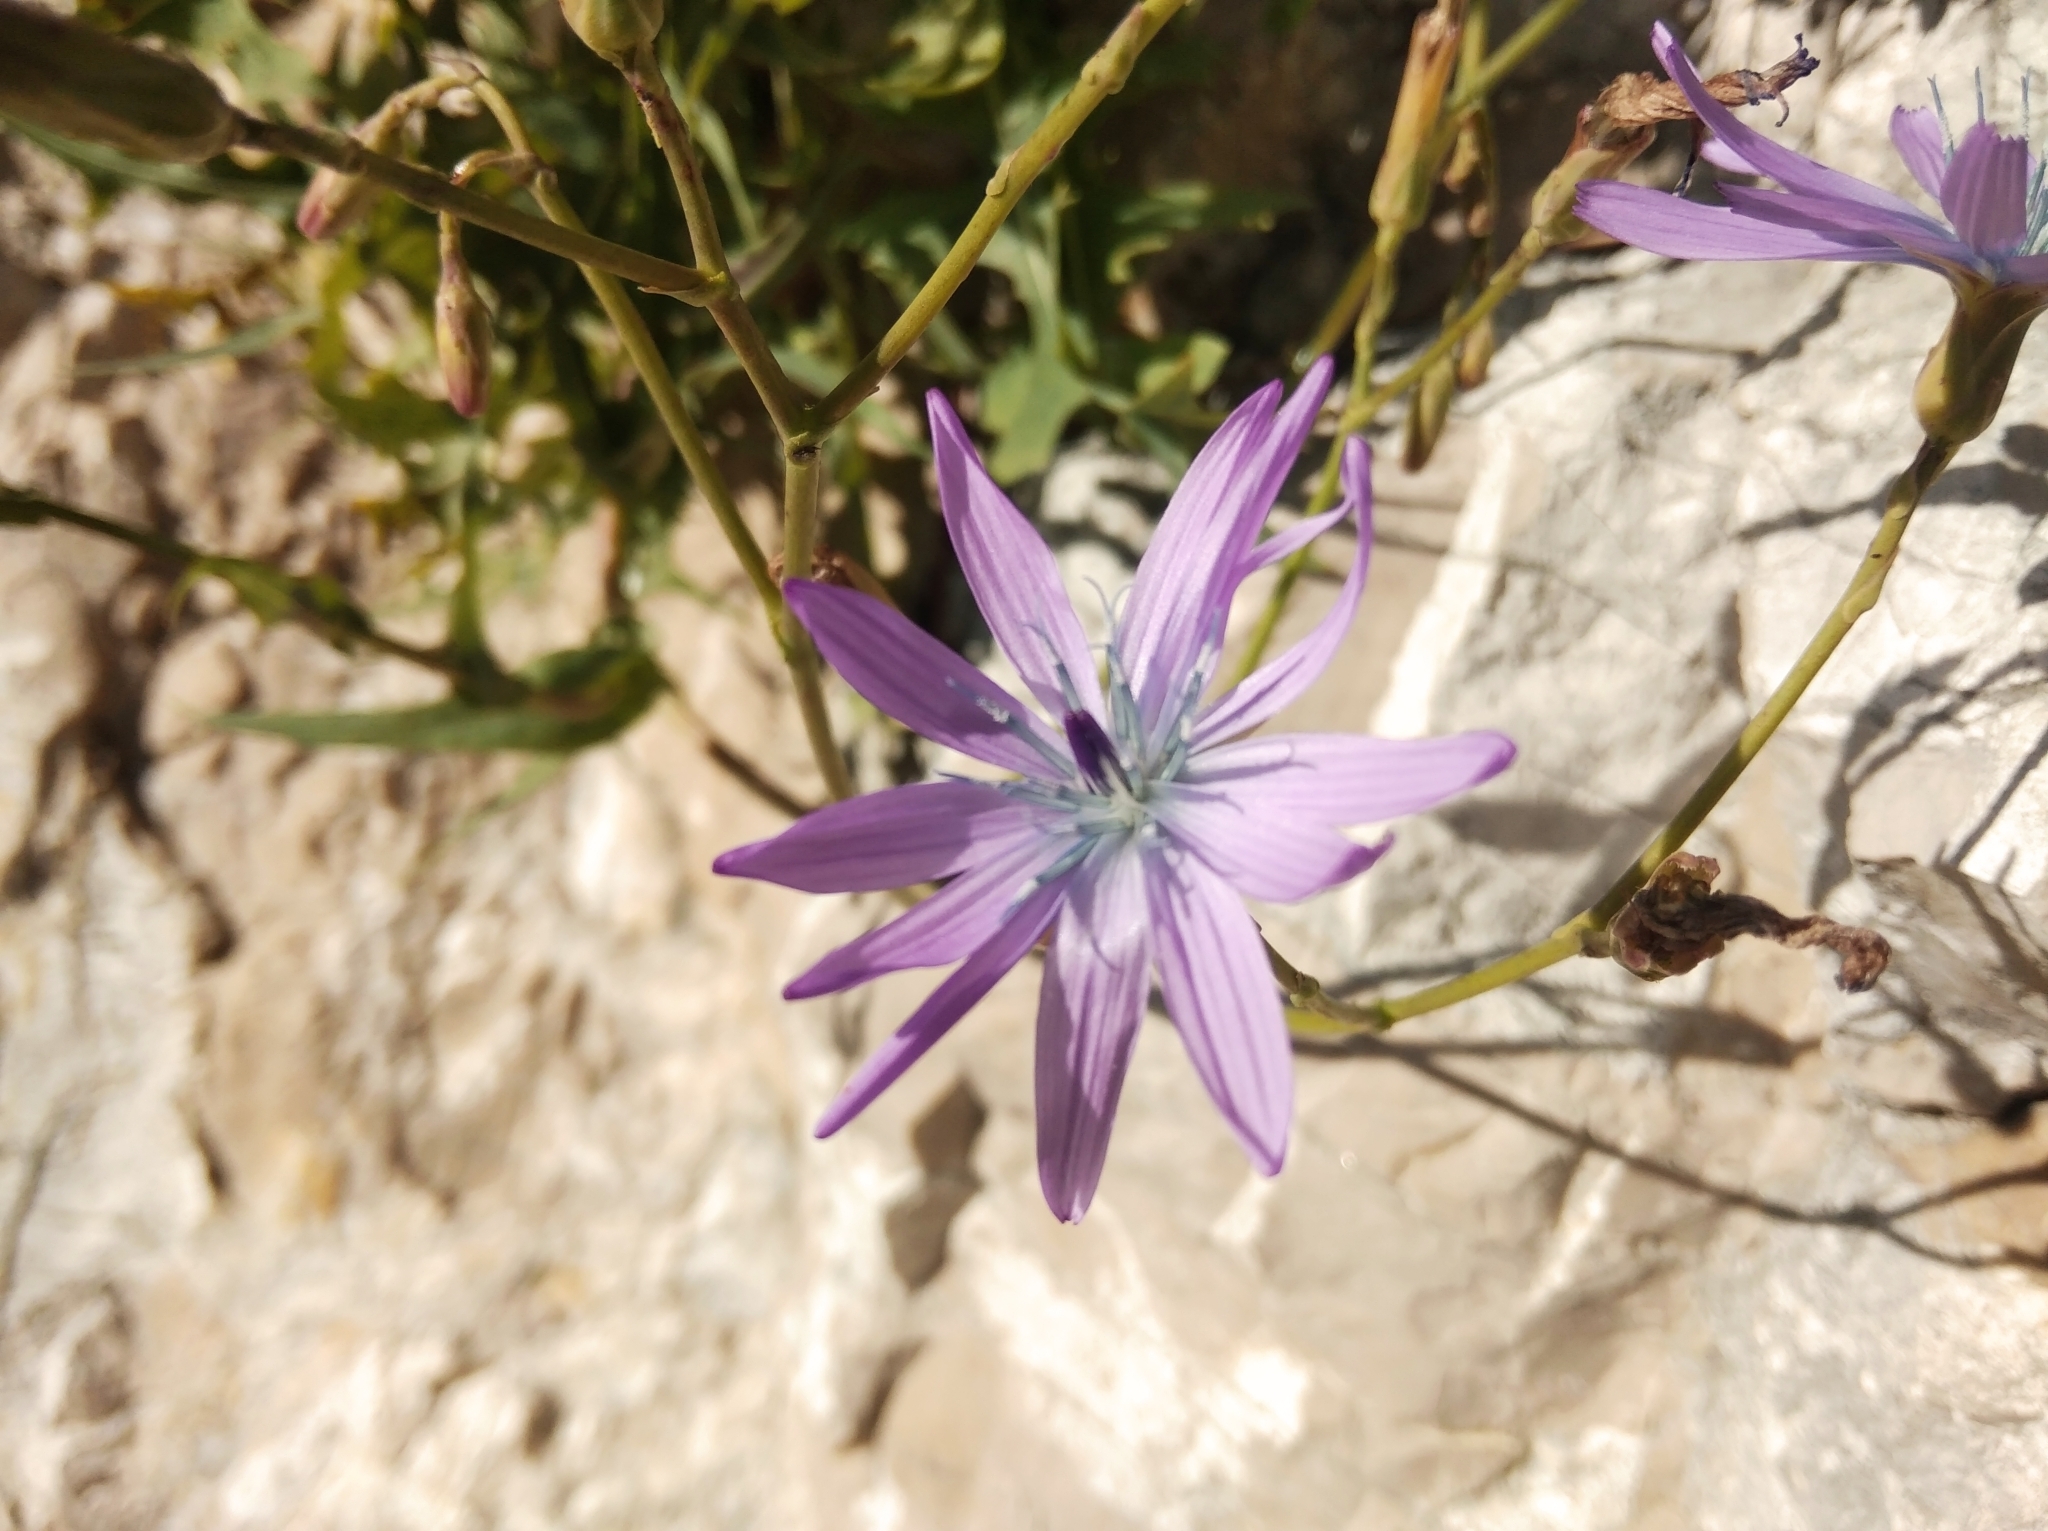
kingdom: Plantae
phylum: Tracheophyta
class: Magnoliopsida
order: Asterales
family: Asteraceae
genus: Lactuca
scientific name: Lactuca perennis
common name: Mountain lettuce
